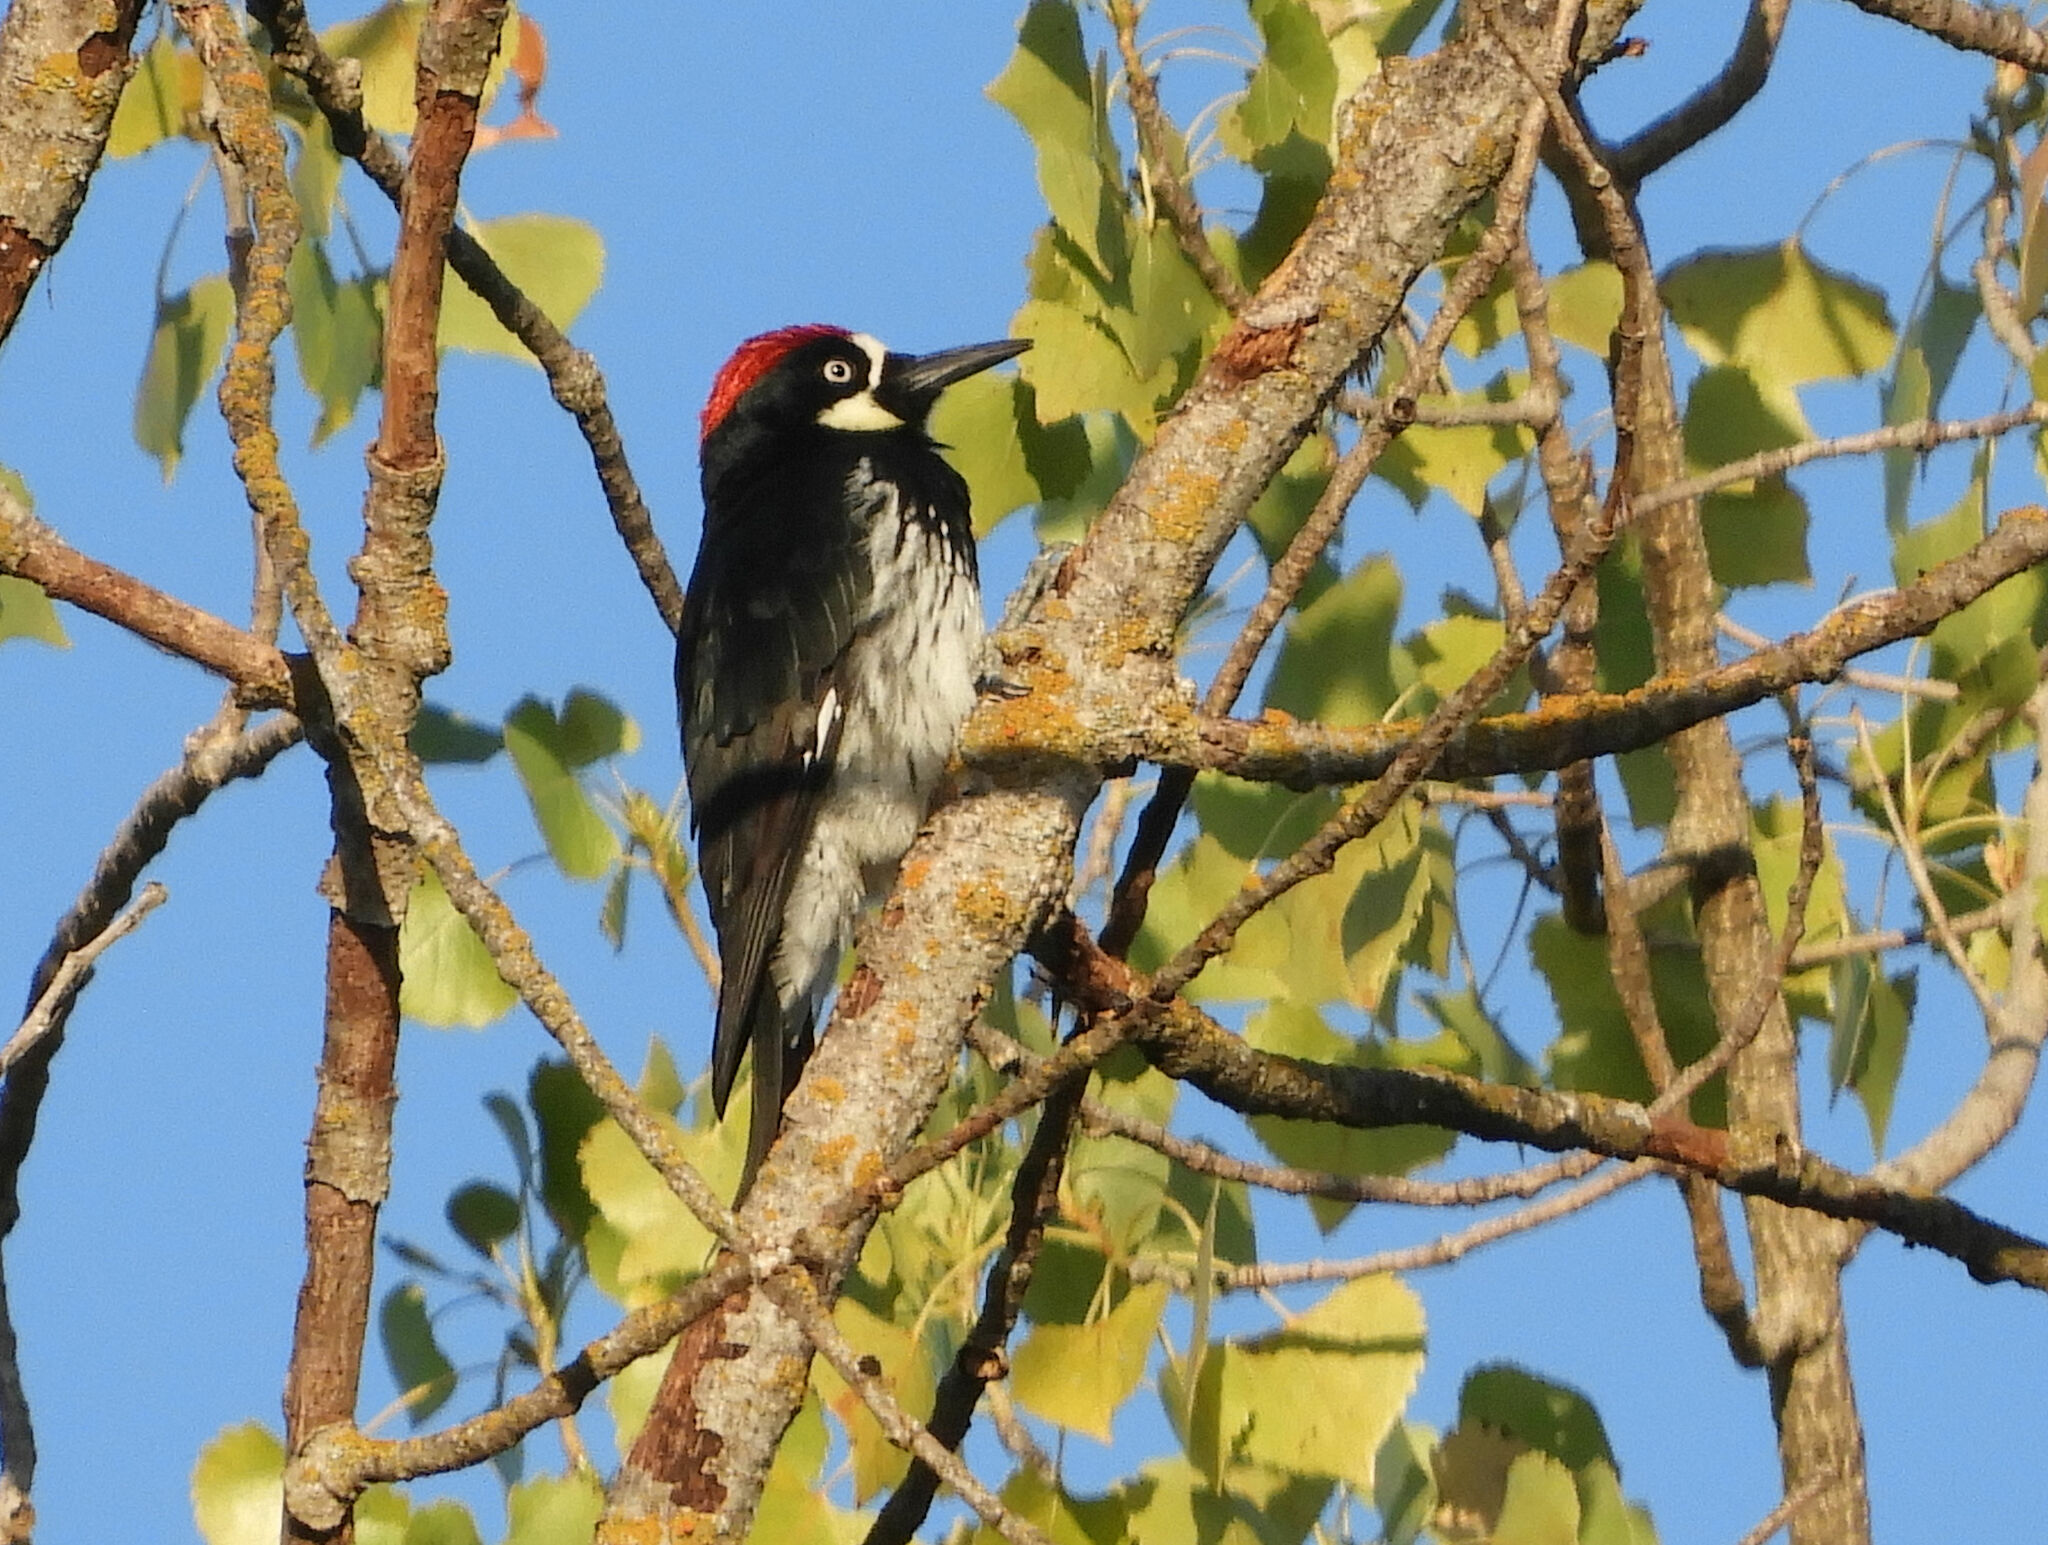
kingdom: Animalia
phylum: Chordata
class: Aves
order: Piciformes
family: Picidae
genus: Melanerpes
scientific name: Melanerpes formicivorus
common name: Acorn woodpecker
